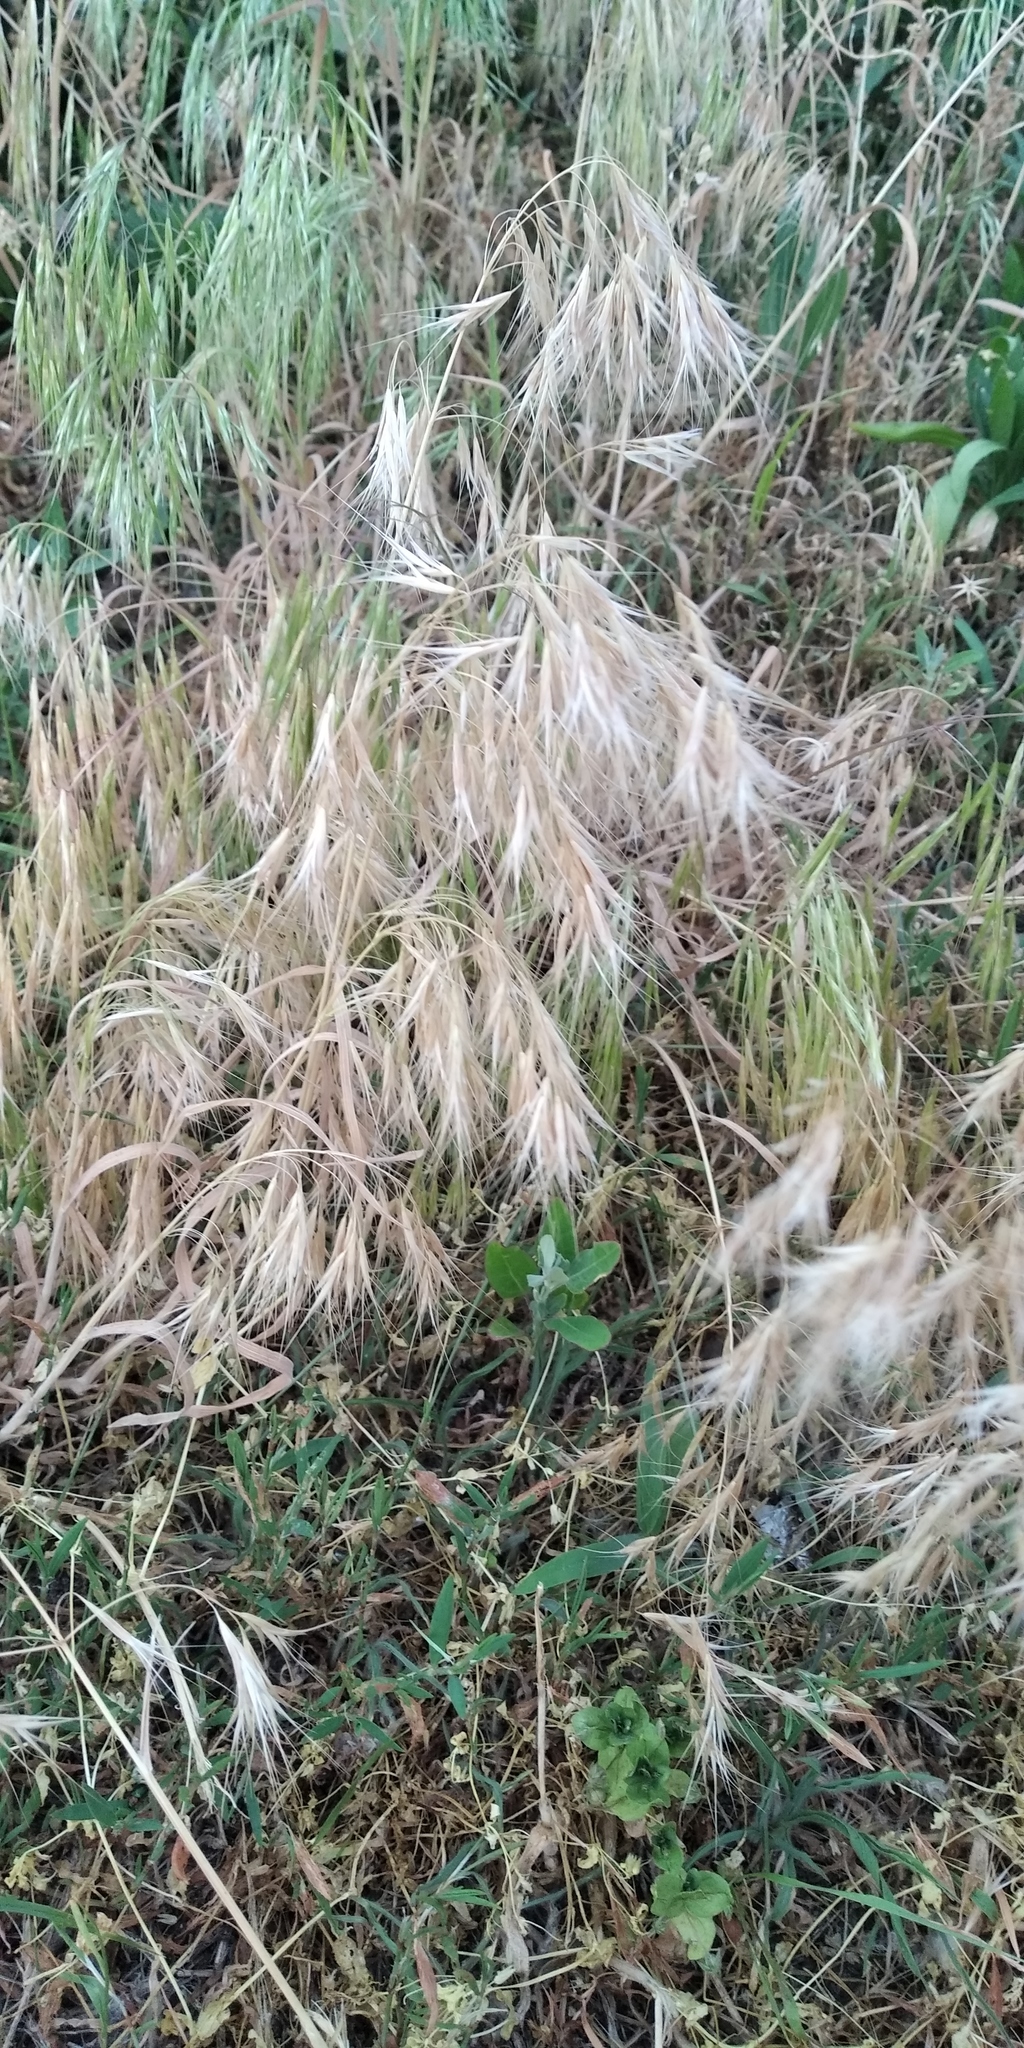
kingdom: Plantae
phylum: Tracheophyta
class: Liliopsida
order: Poales
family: Poaceae
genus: Bromus
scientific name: Bromus tectorum
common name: Cheatgrass
